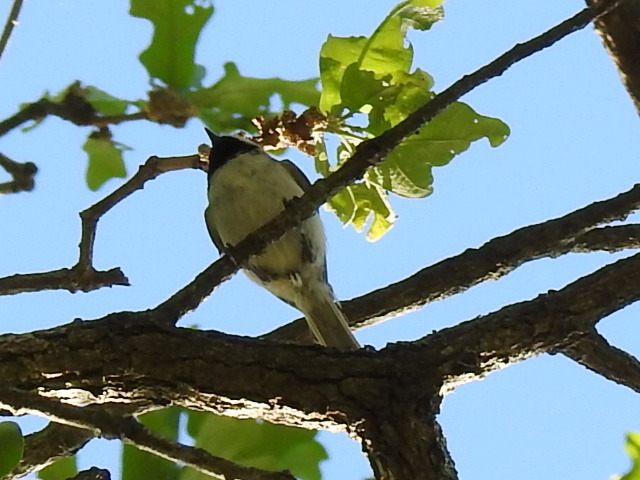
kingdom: Animalia
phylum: Chordata
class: Aves
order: Passeriformes
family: Paridae
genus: Poecile
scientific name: Poecile carolinensis
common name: Carolina chickadee
